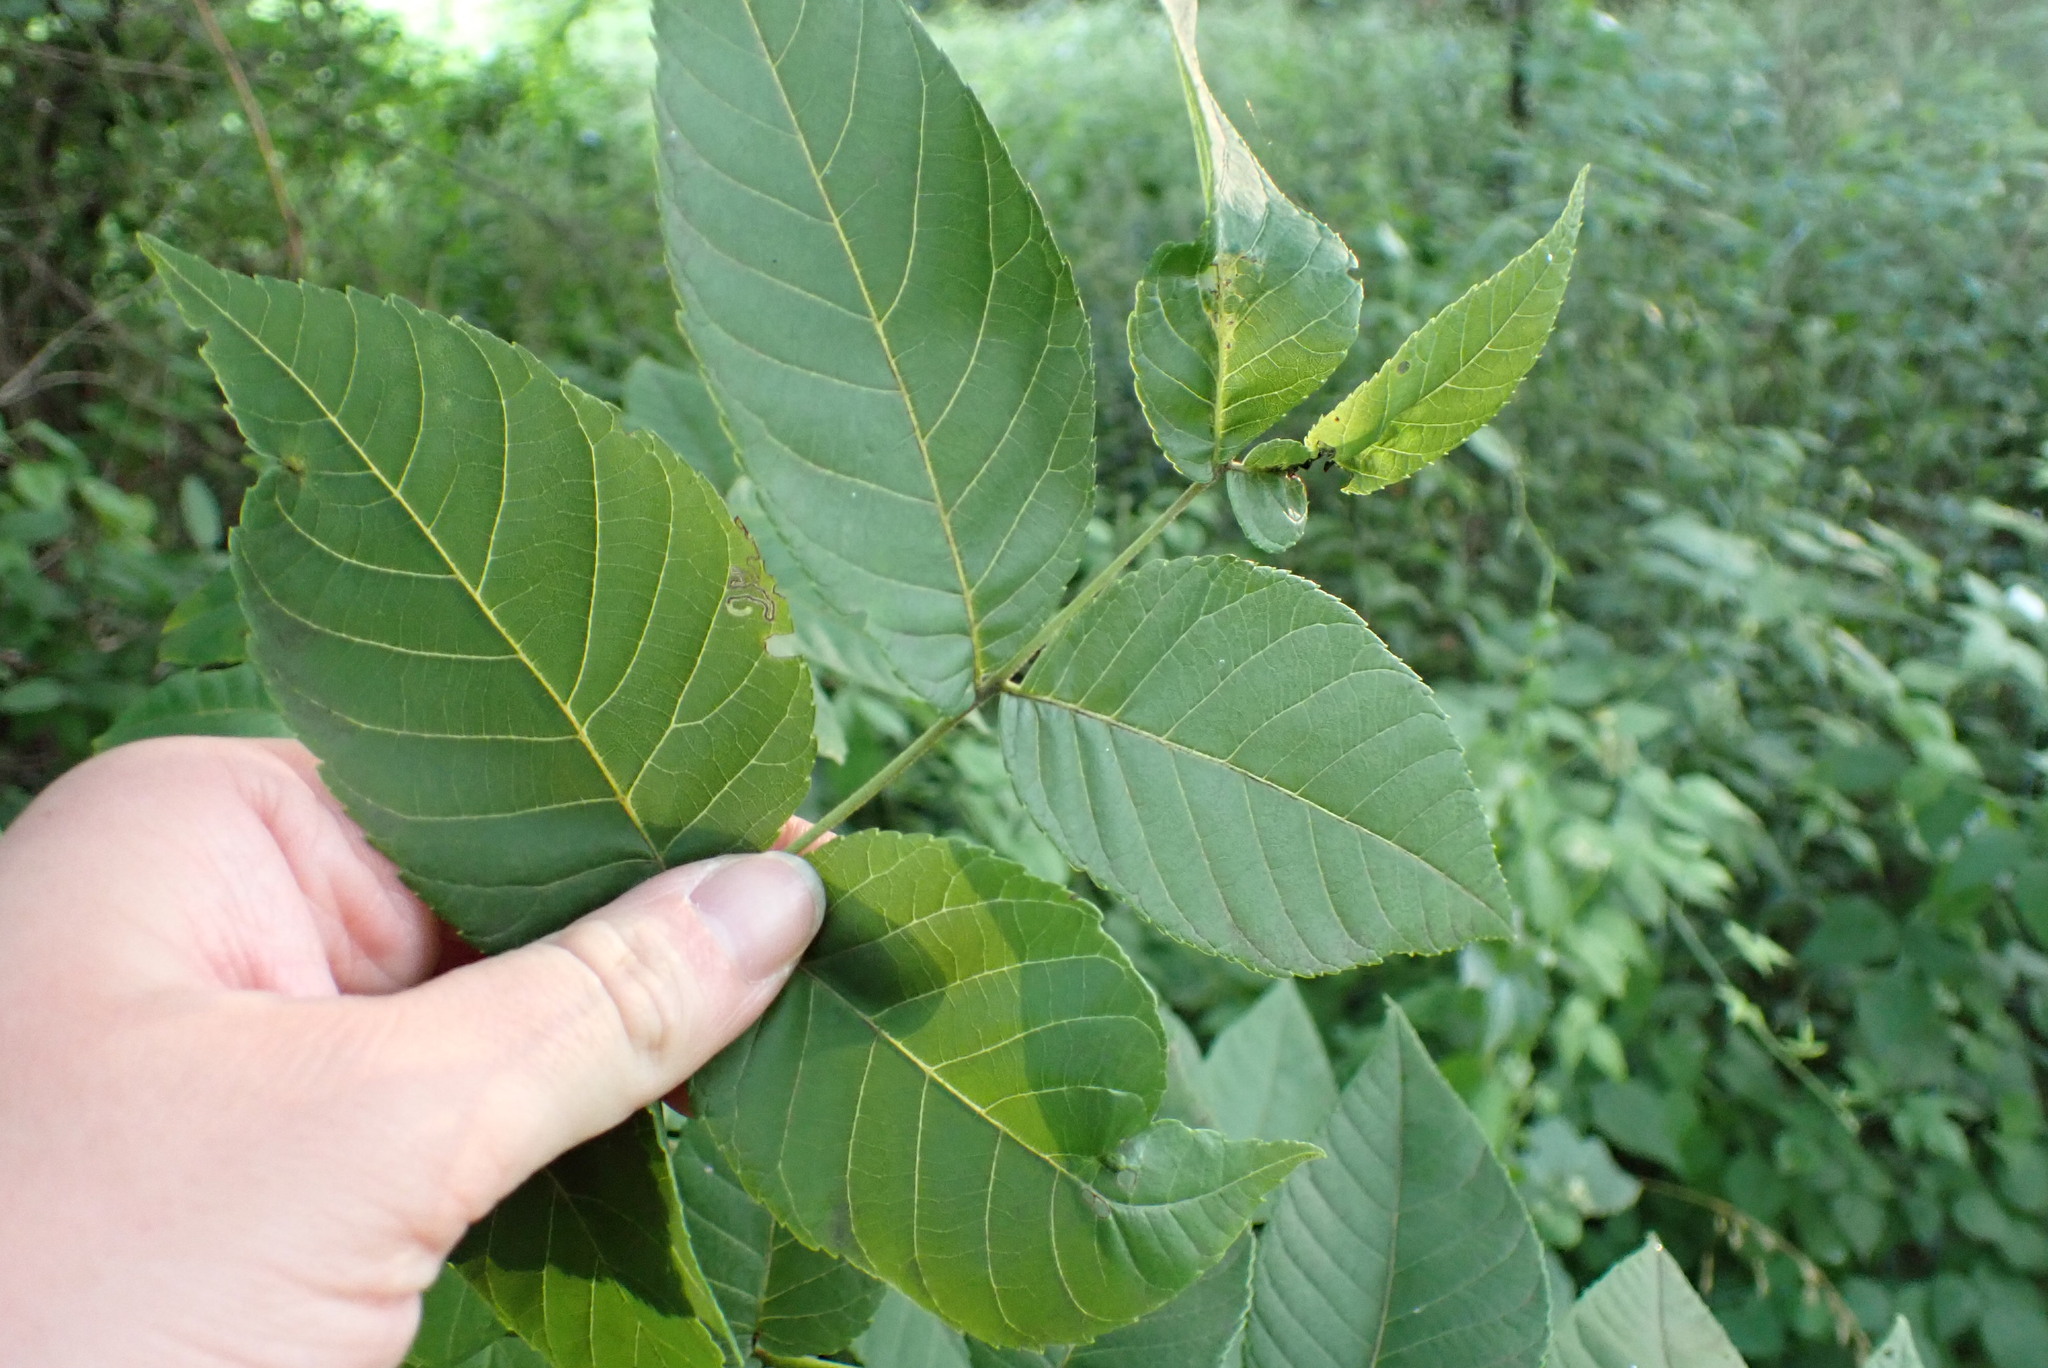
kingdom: Animalia
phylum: Arthropoda
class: Insecta
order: Lepidoptera
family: Nepticulidae
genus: Stigmella
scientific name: Stigmella juglandifoliella
